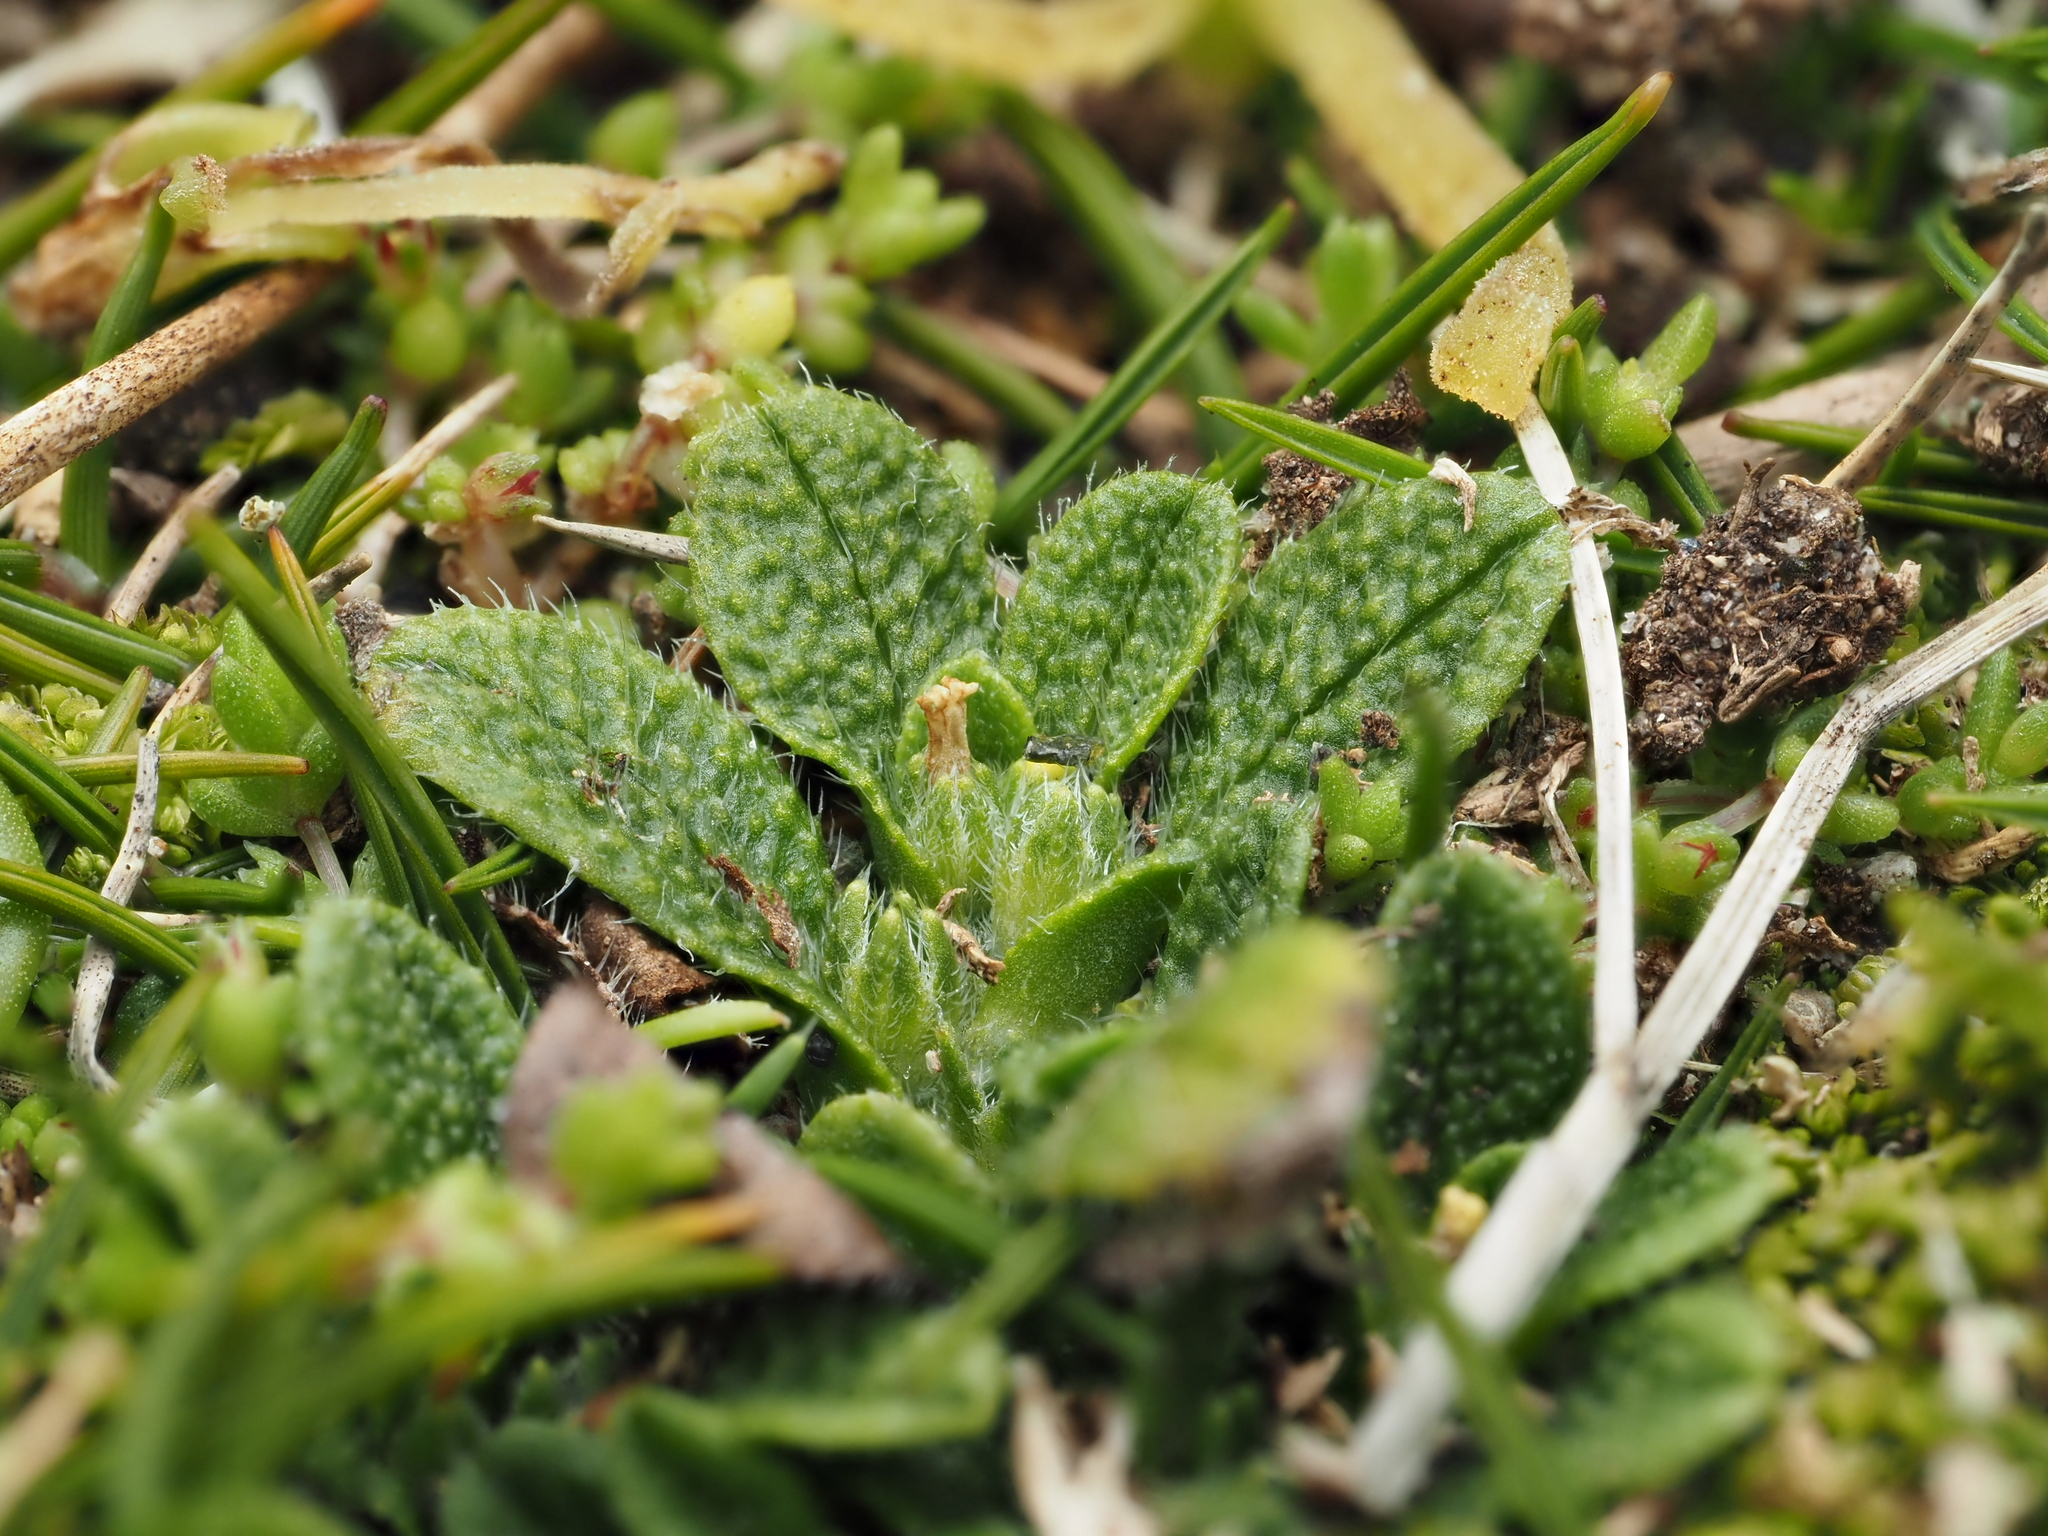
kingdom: Plantae
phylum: Tracheophyta
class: Magnoliopsida
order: Boraginales
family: Boraginaceae
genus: Myosotis
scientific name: Myosotis brevis
